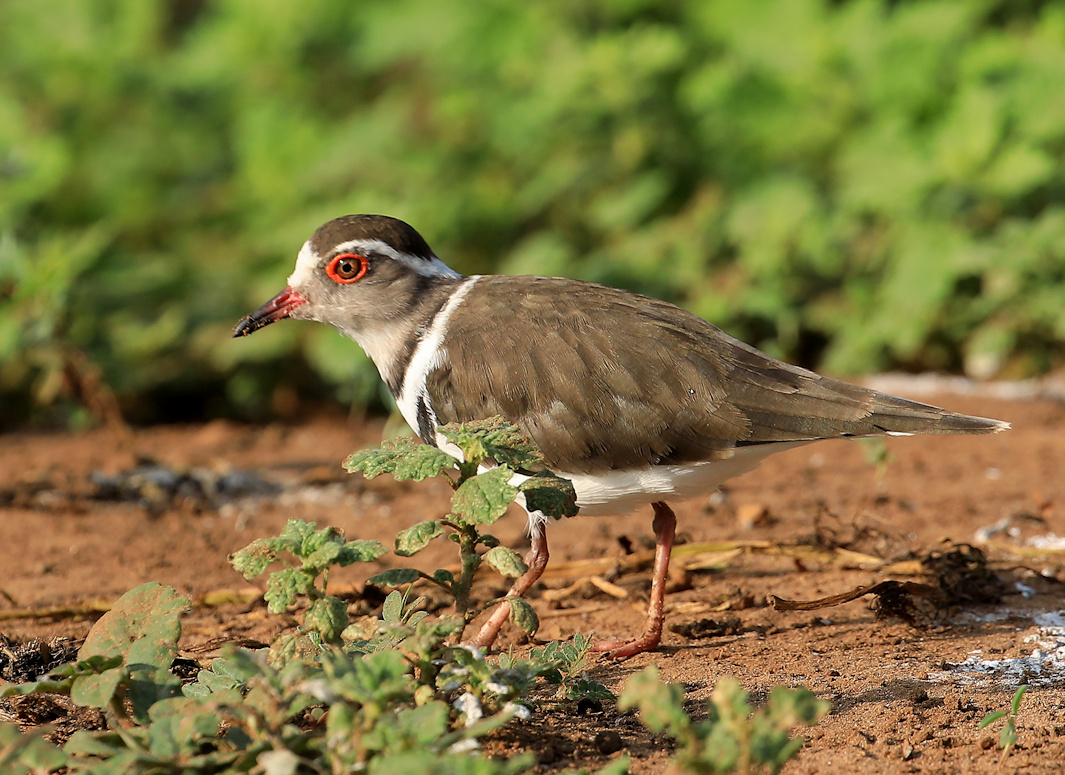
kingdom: Animalia
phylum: Chordata
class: Aves
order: Charadriiformes
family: Charadriidae
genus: Charadrius
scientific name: Charadrius tricollaris
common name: Three-banded plover
